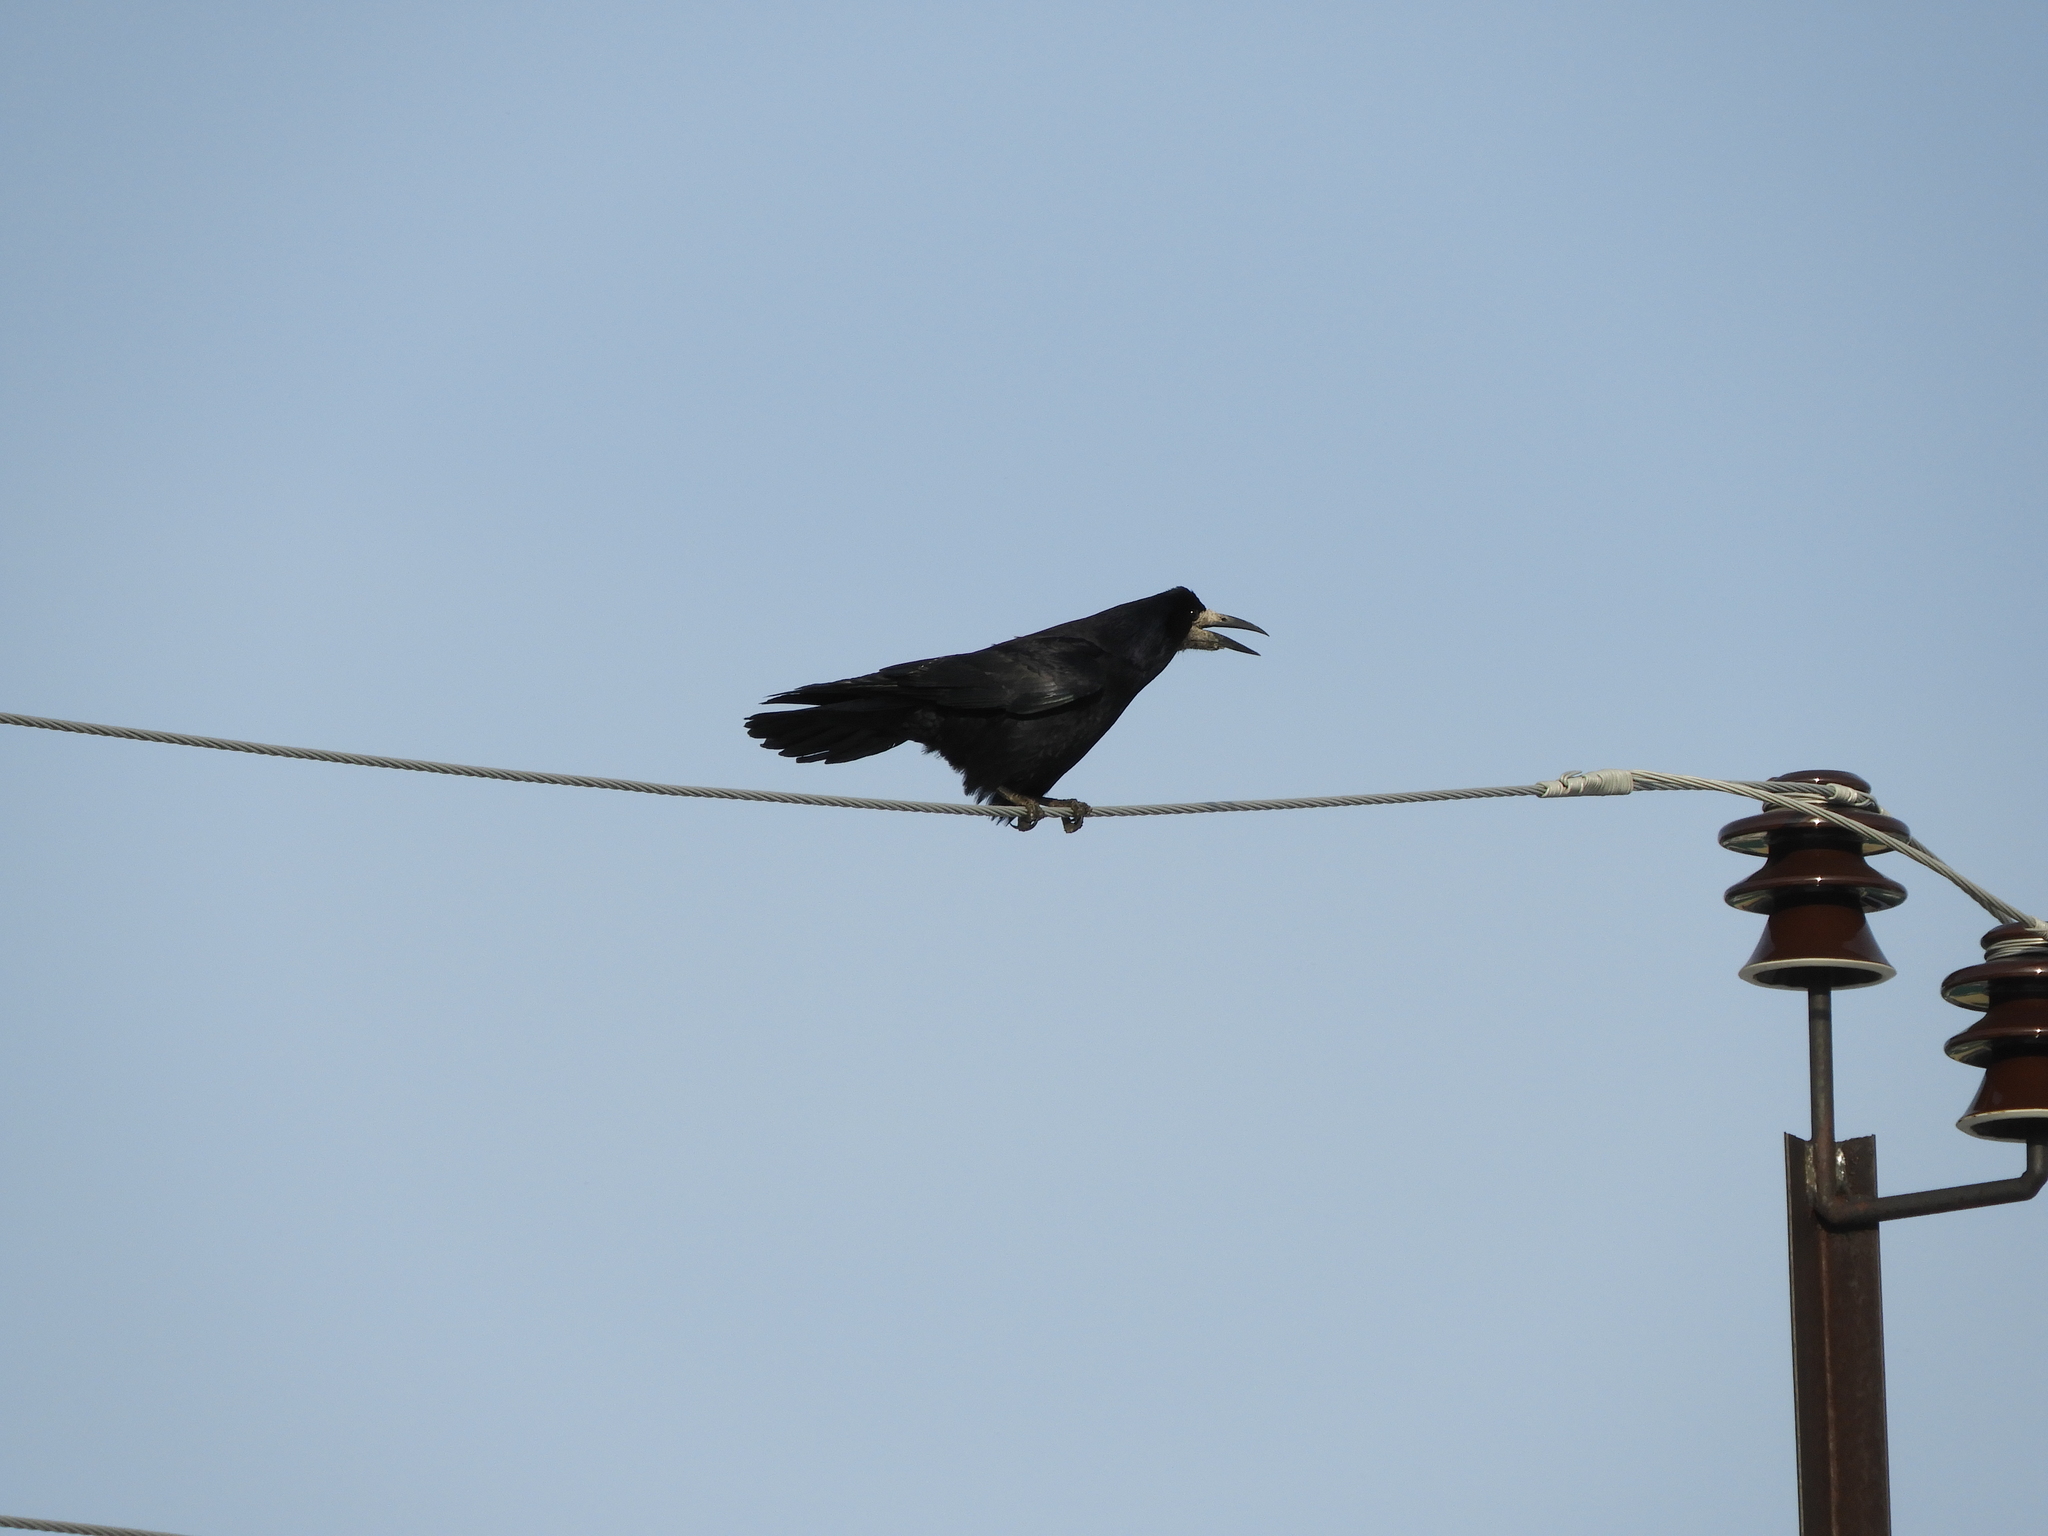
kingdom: Animalia
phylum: Chordata
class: Aves
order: Passeriformes
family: Corvidae
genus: Corvus
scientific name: Corvus frugilegus
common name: Rook
